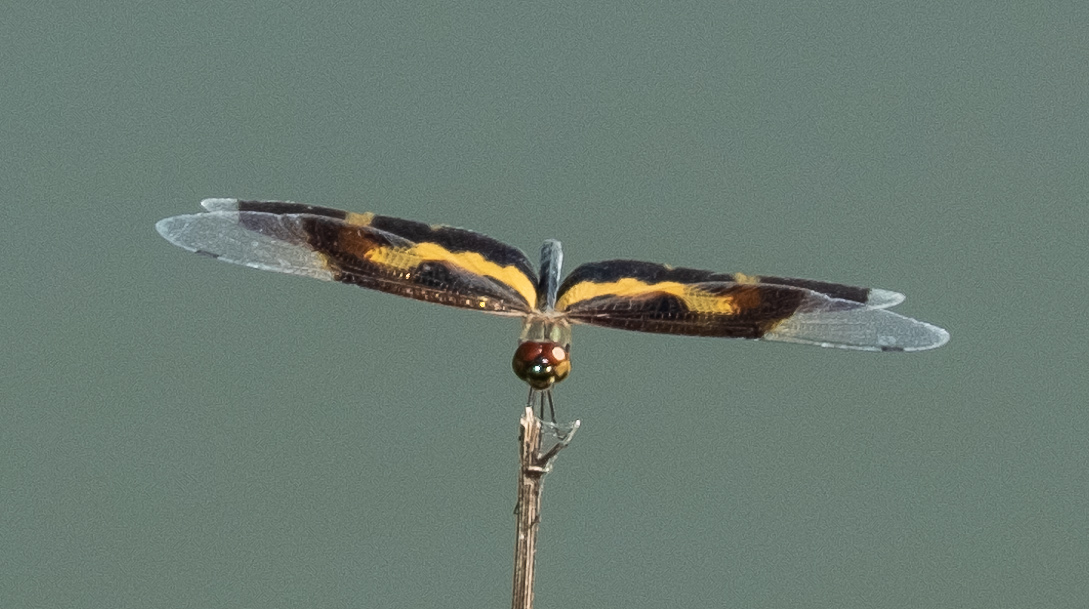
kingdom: Animalia
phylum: Arthropoda
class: Insecta
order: Odonata
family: Libellulidae
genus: Rhyothemis
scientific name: Rhyothemis variegata
